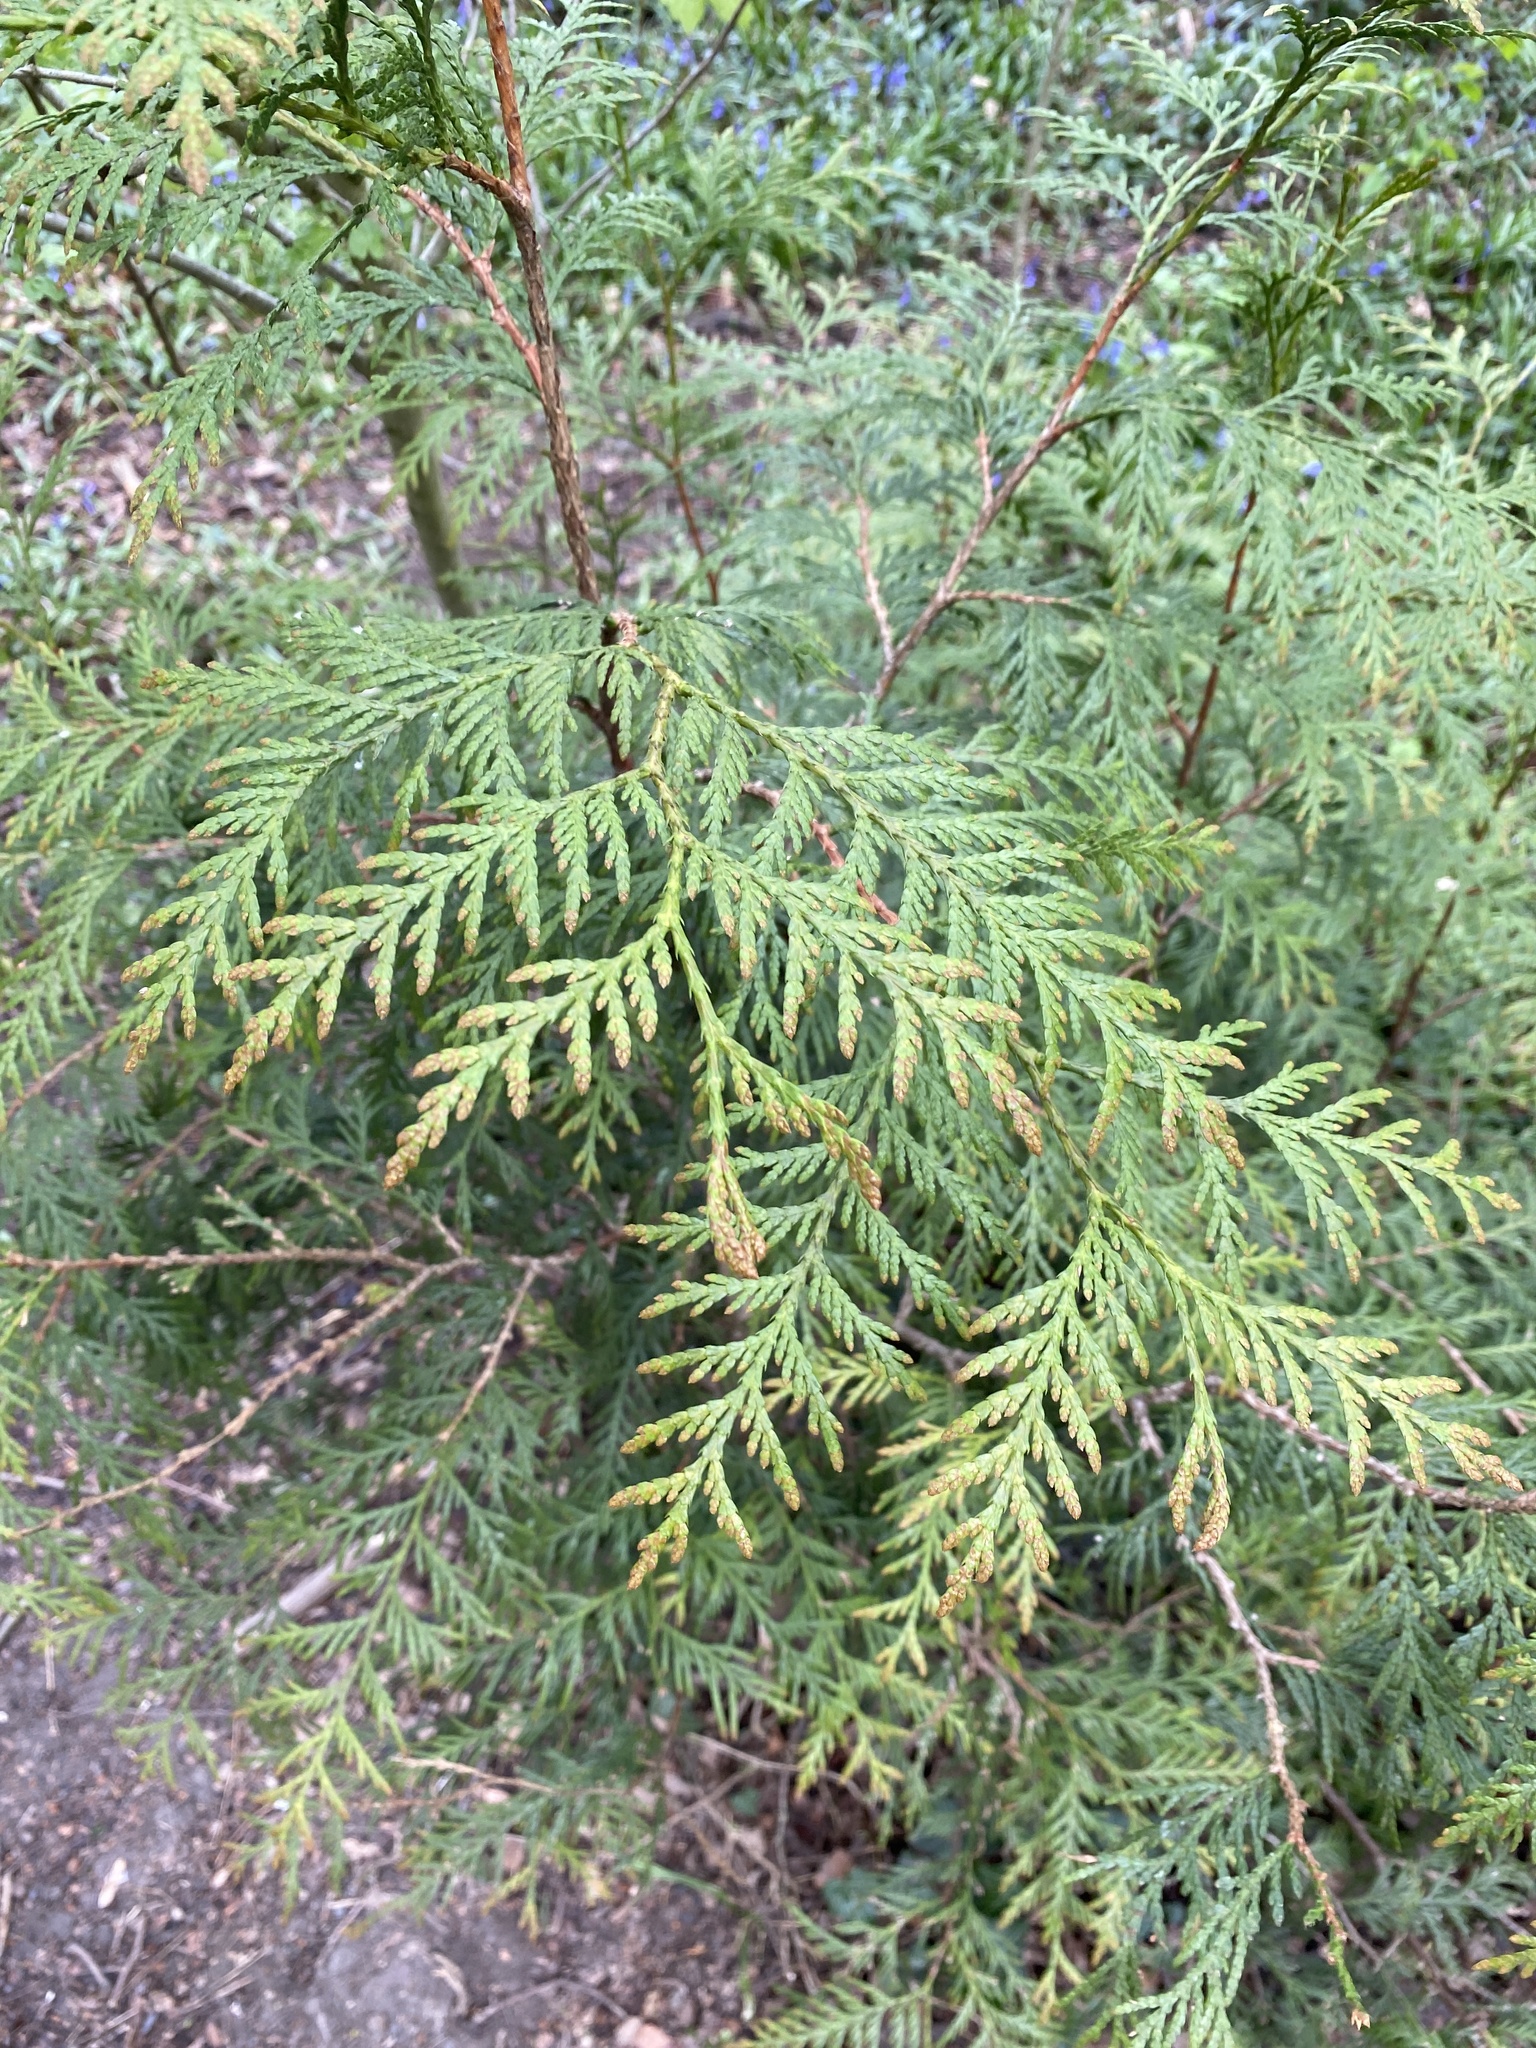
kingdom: Plantae
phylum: Tracheophyta
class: Pinopsida
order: Pinales
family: Cupressaceae
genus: Thuja
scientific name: Thuja plicata
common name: Western red-cedar
